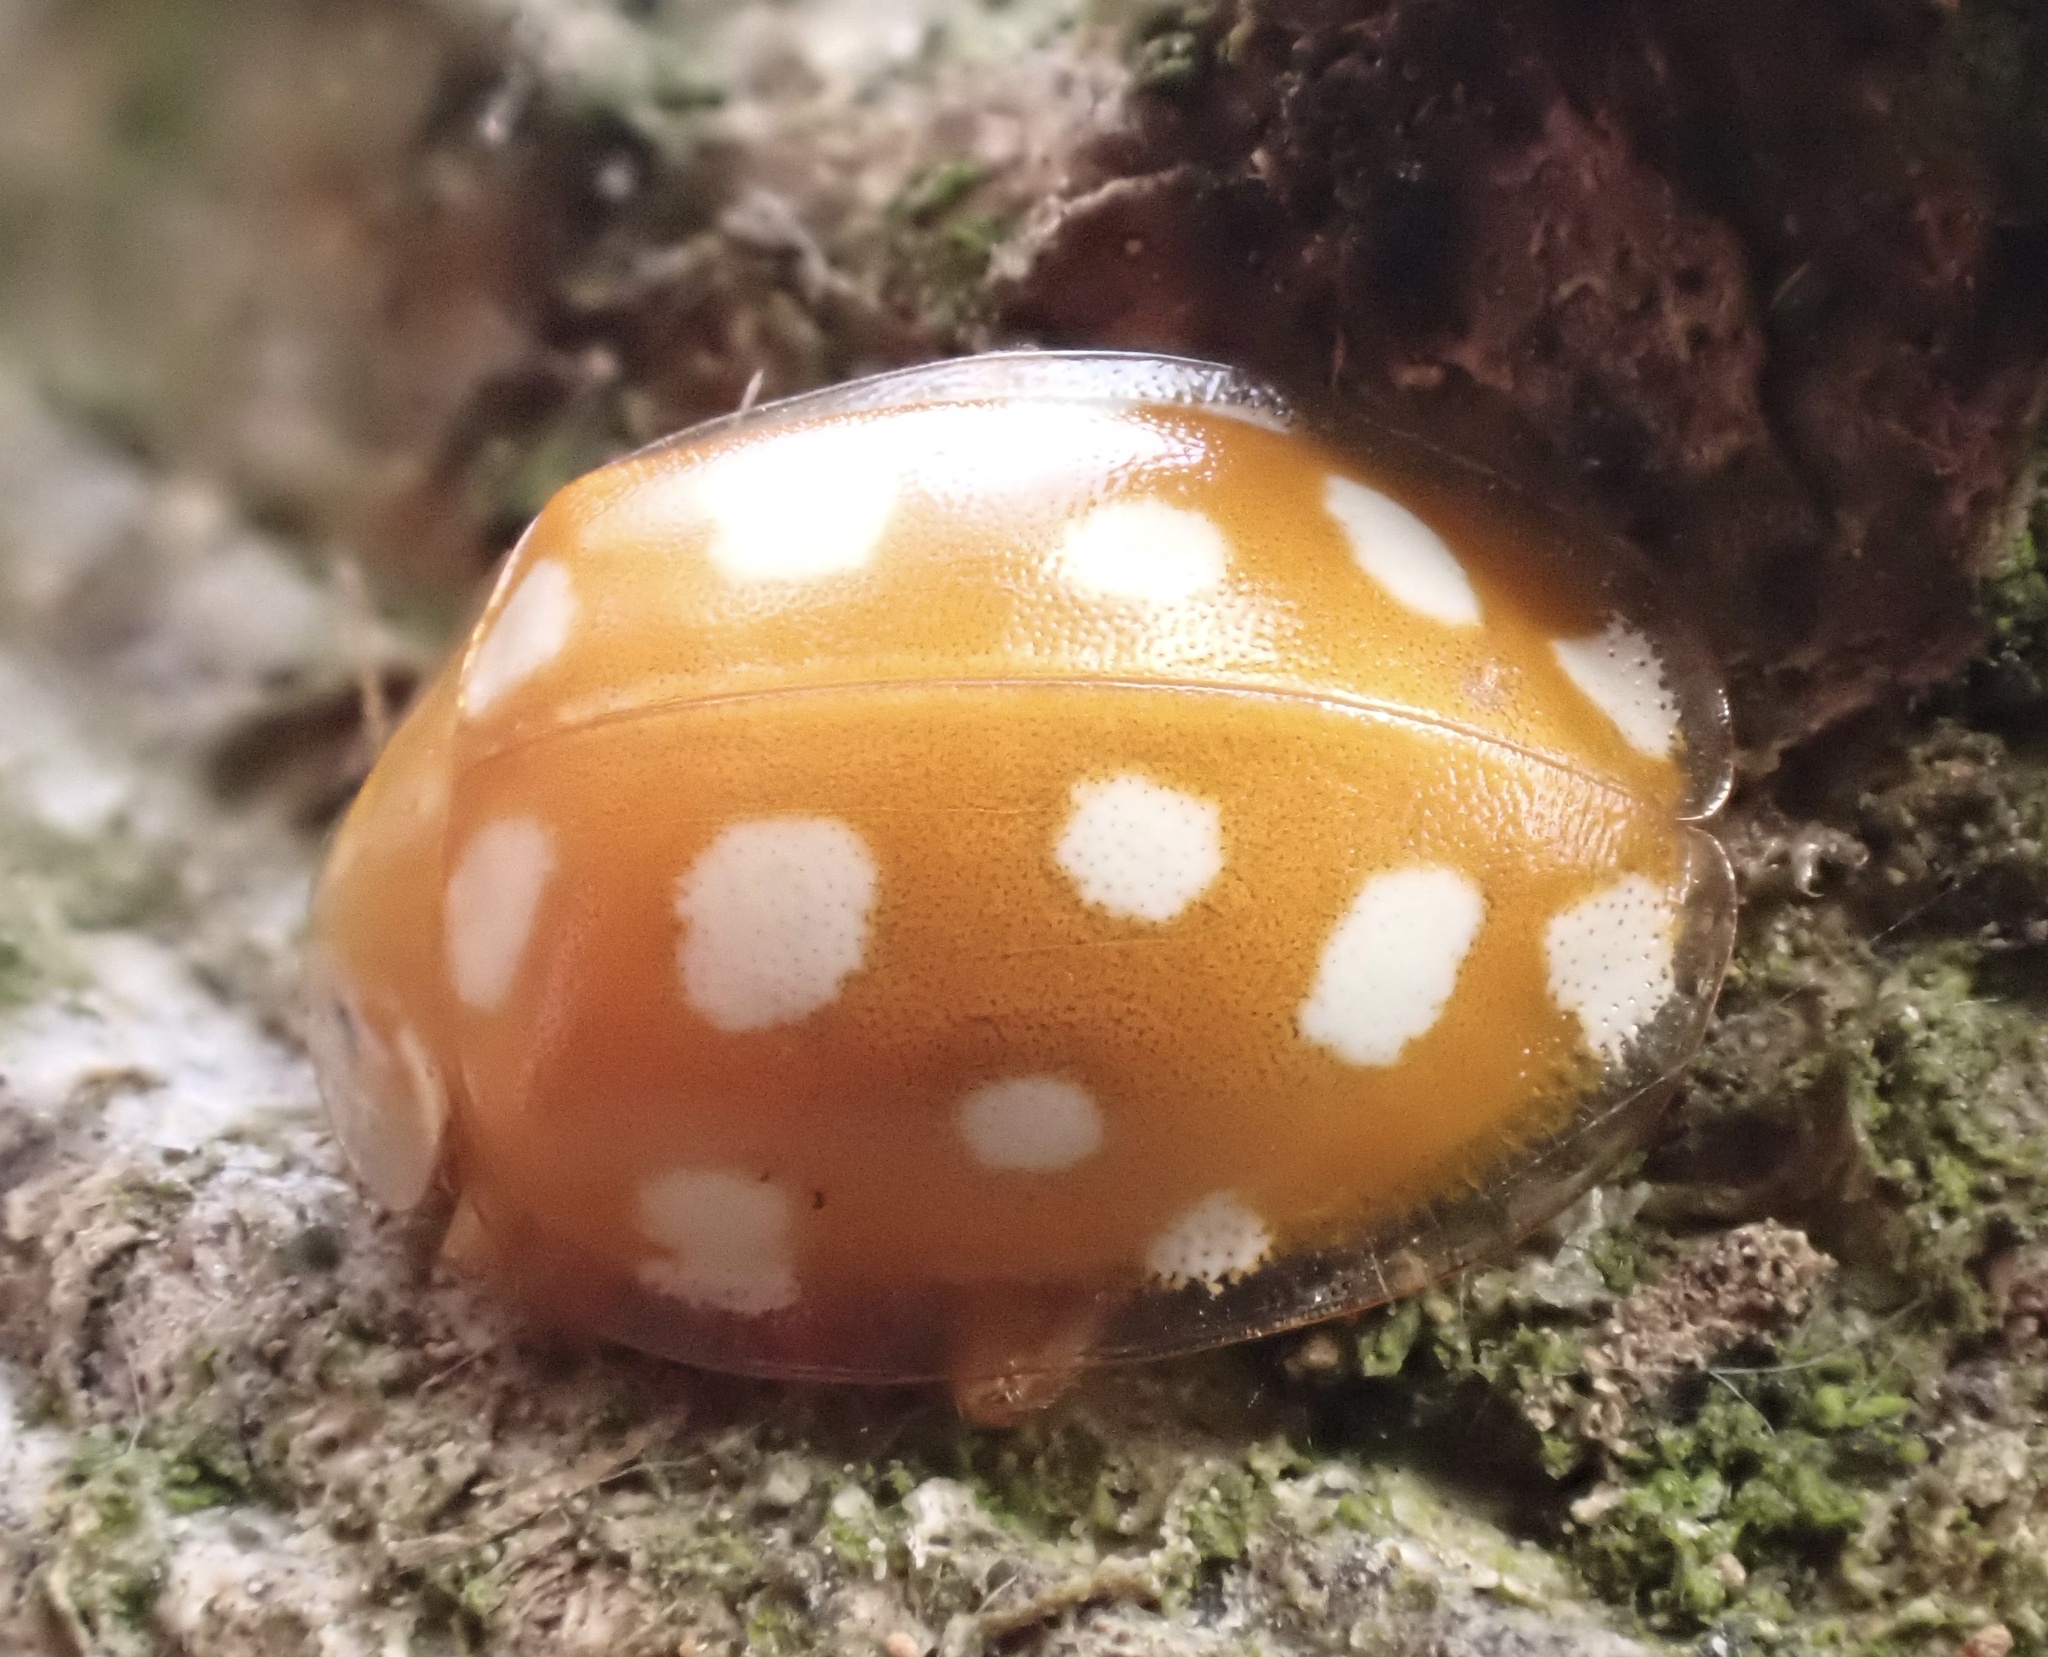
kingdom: Animalia
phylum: Arthropoda
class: Insecta
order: Coleoptera
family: Coccinellidae
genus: Halyzia
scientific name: Halyzia sedecimguttata
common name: Orange ladybird
